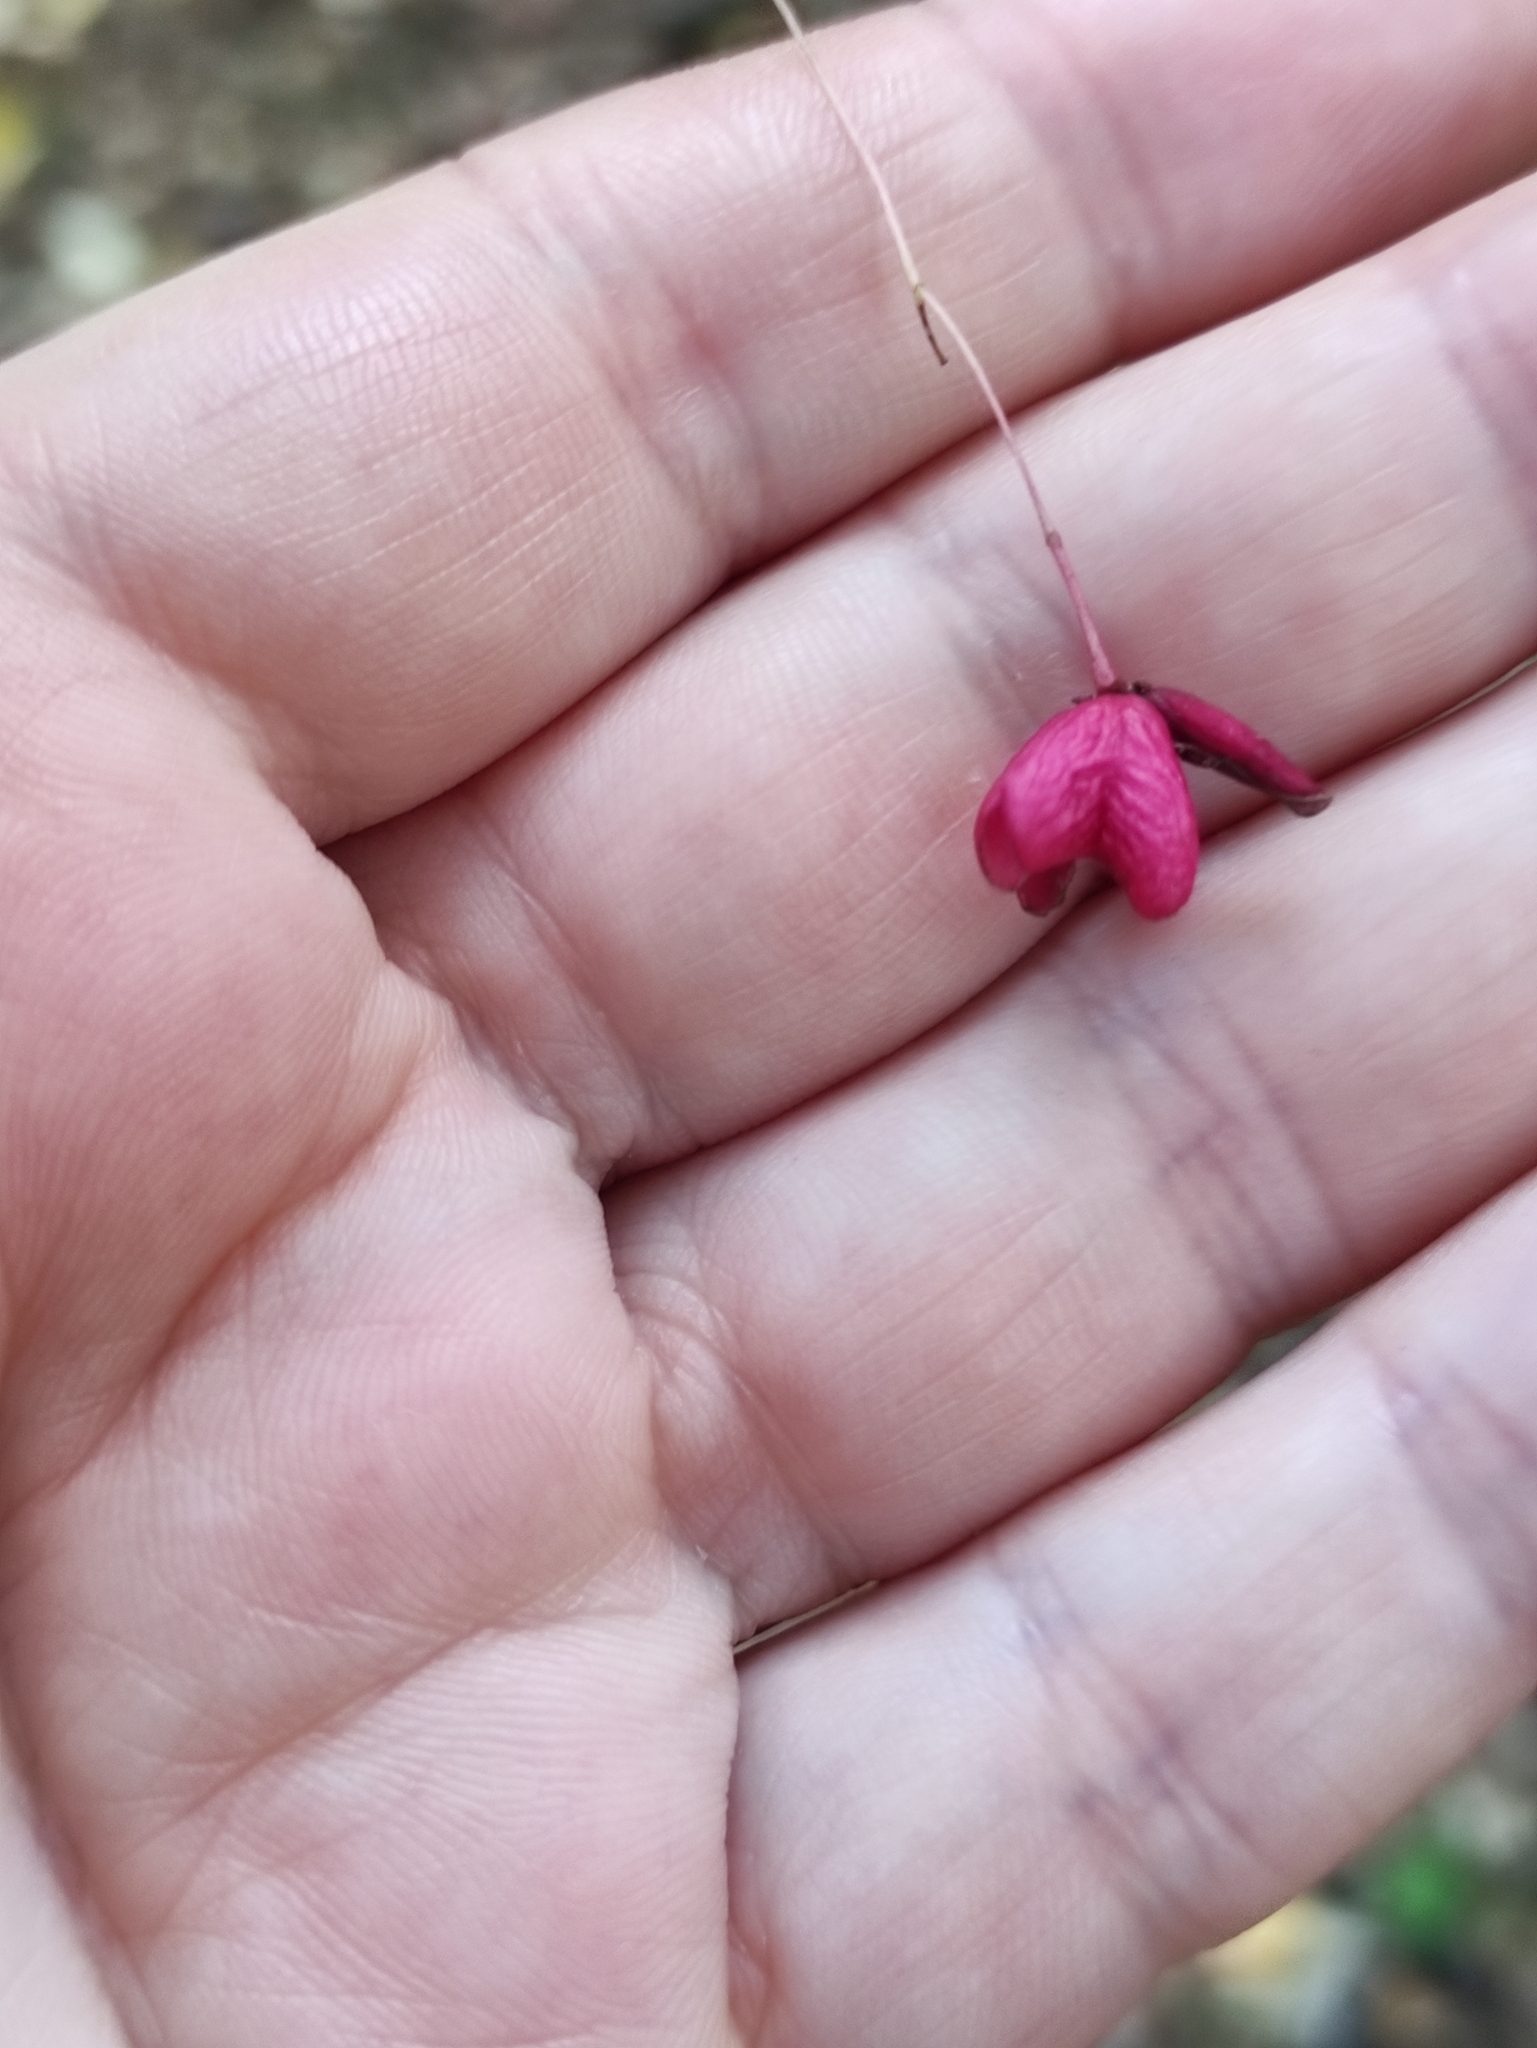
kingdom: Plantae
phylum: Tracheophyta
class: Magnoliopsida
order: Celastrales
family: Celastraceae
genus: Euonymus
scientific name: Euonymus verrucosus
